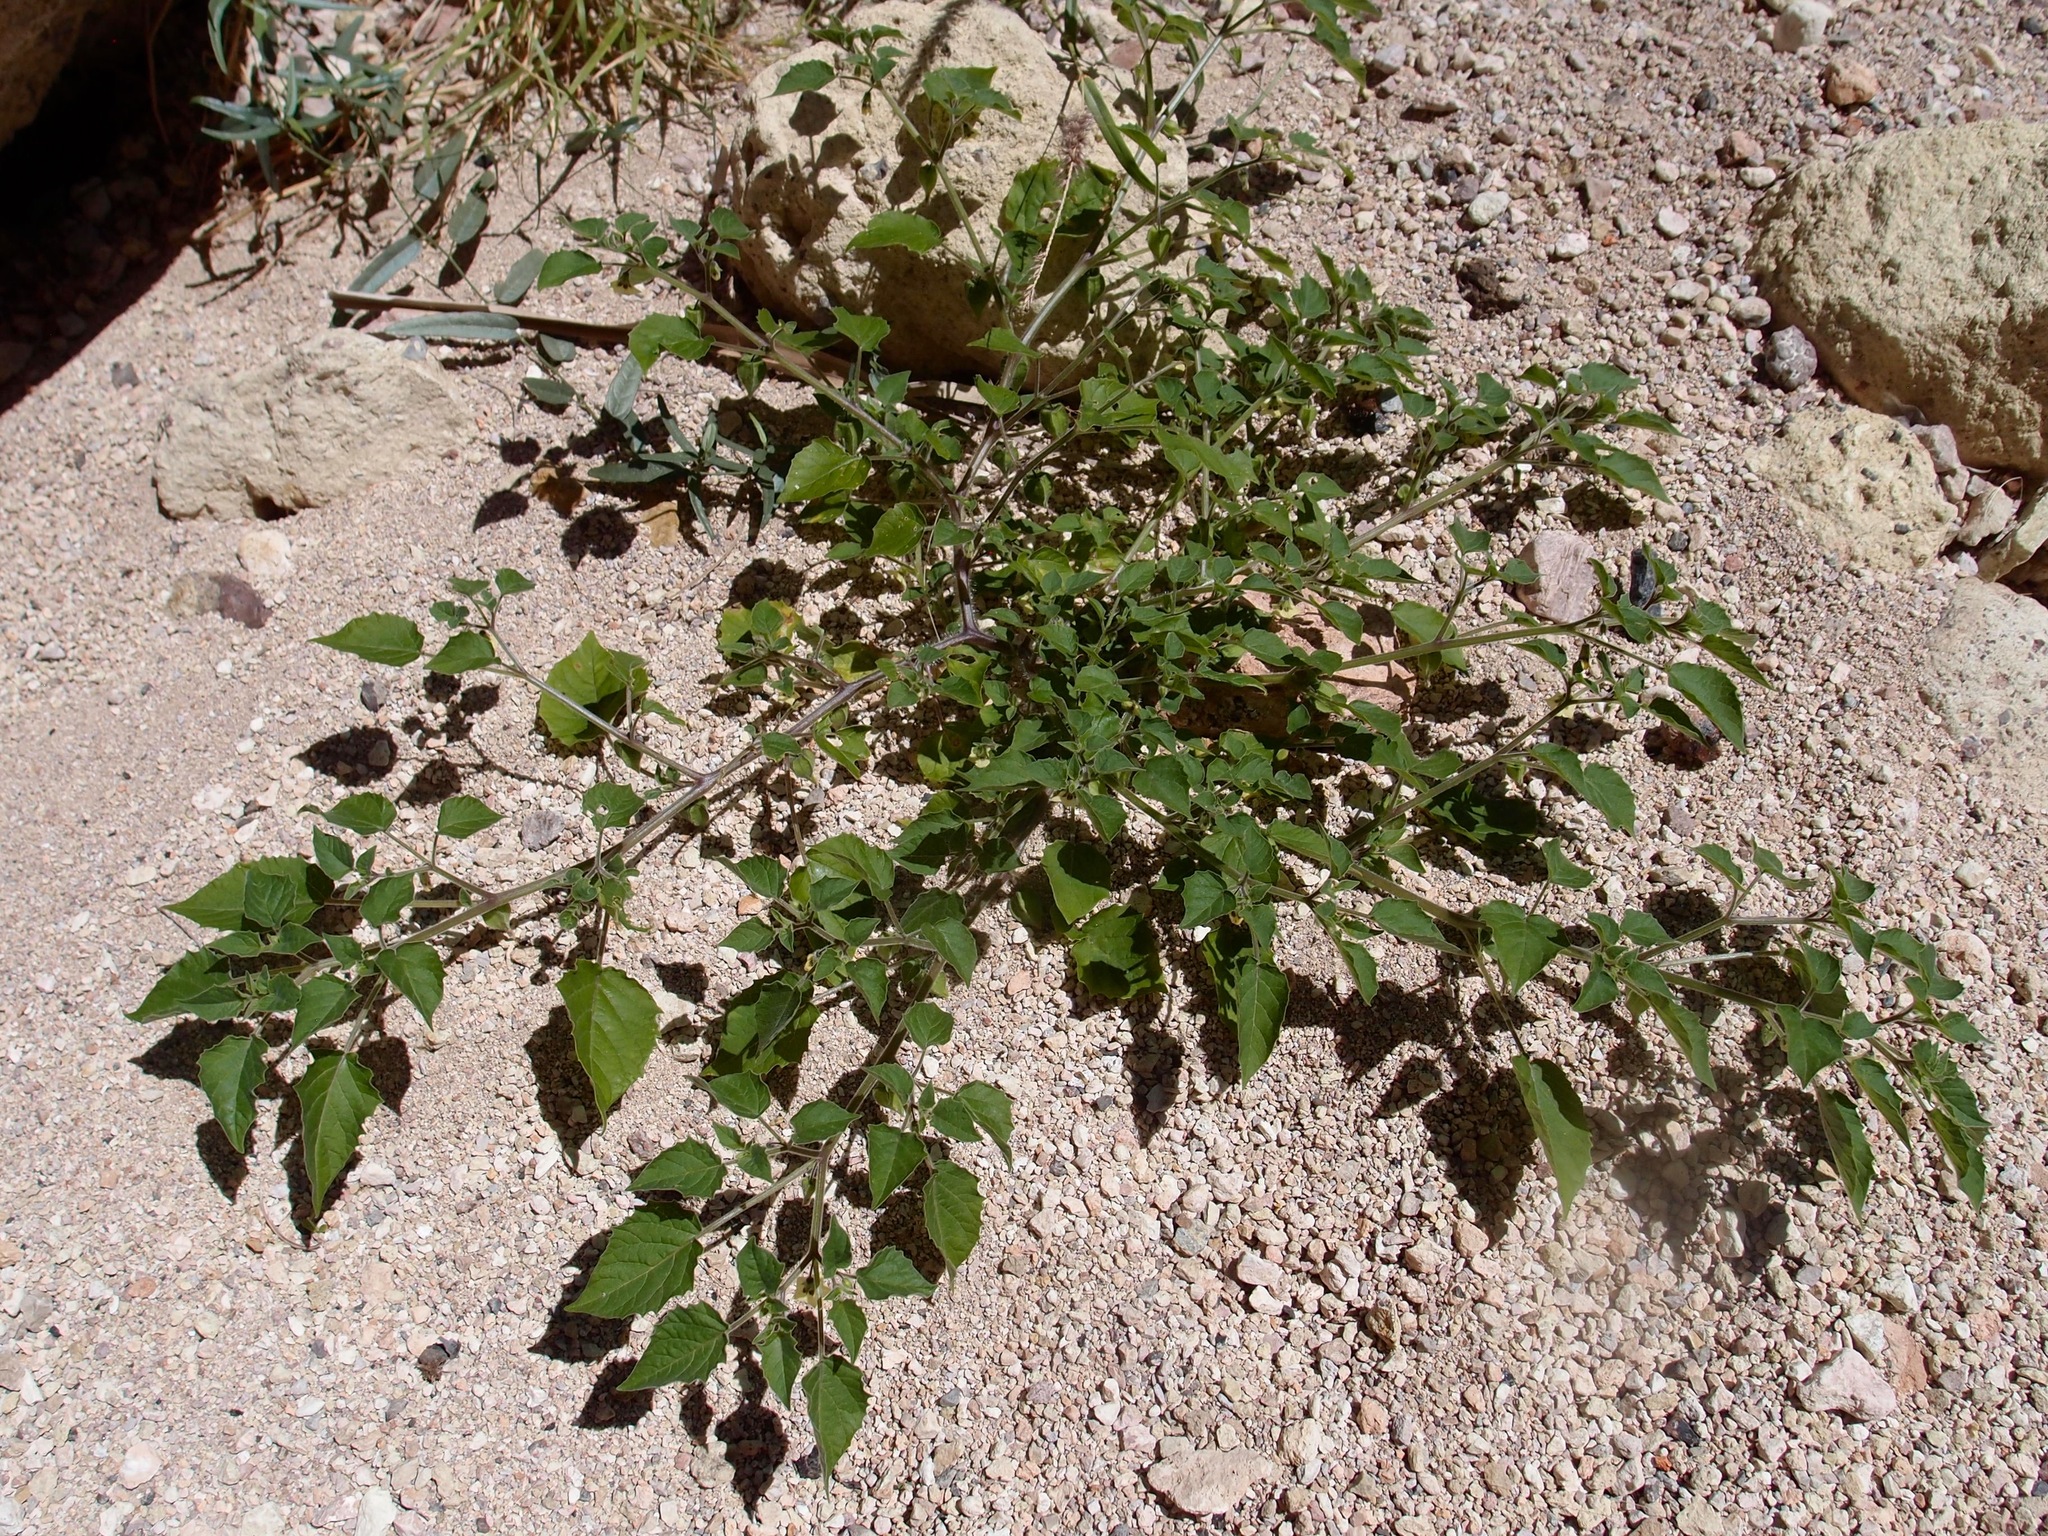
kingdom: Plantae
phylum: Tracheophyta
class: Magnoliopsida
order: Solanales
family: Solanaceae
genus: Physalis
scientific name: Physalis pubescens
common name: Downy ground-cherry
